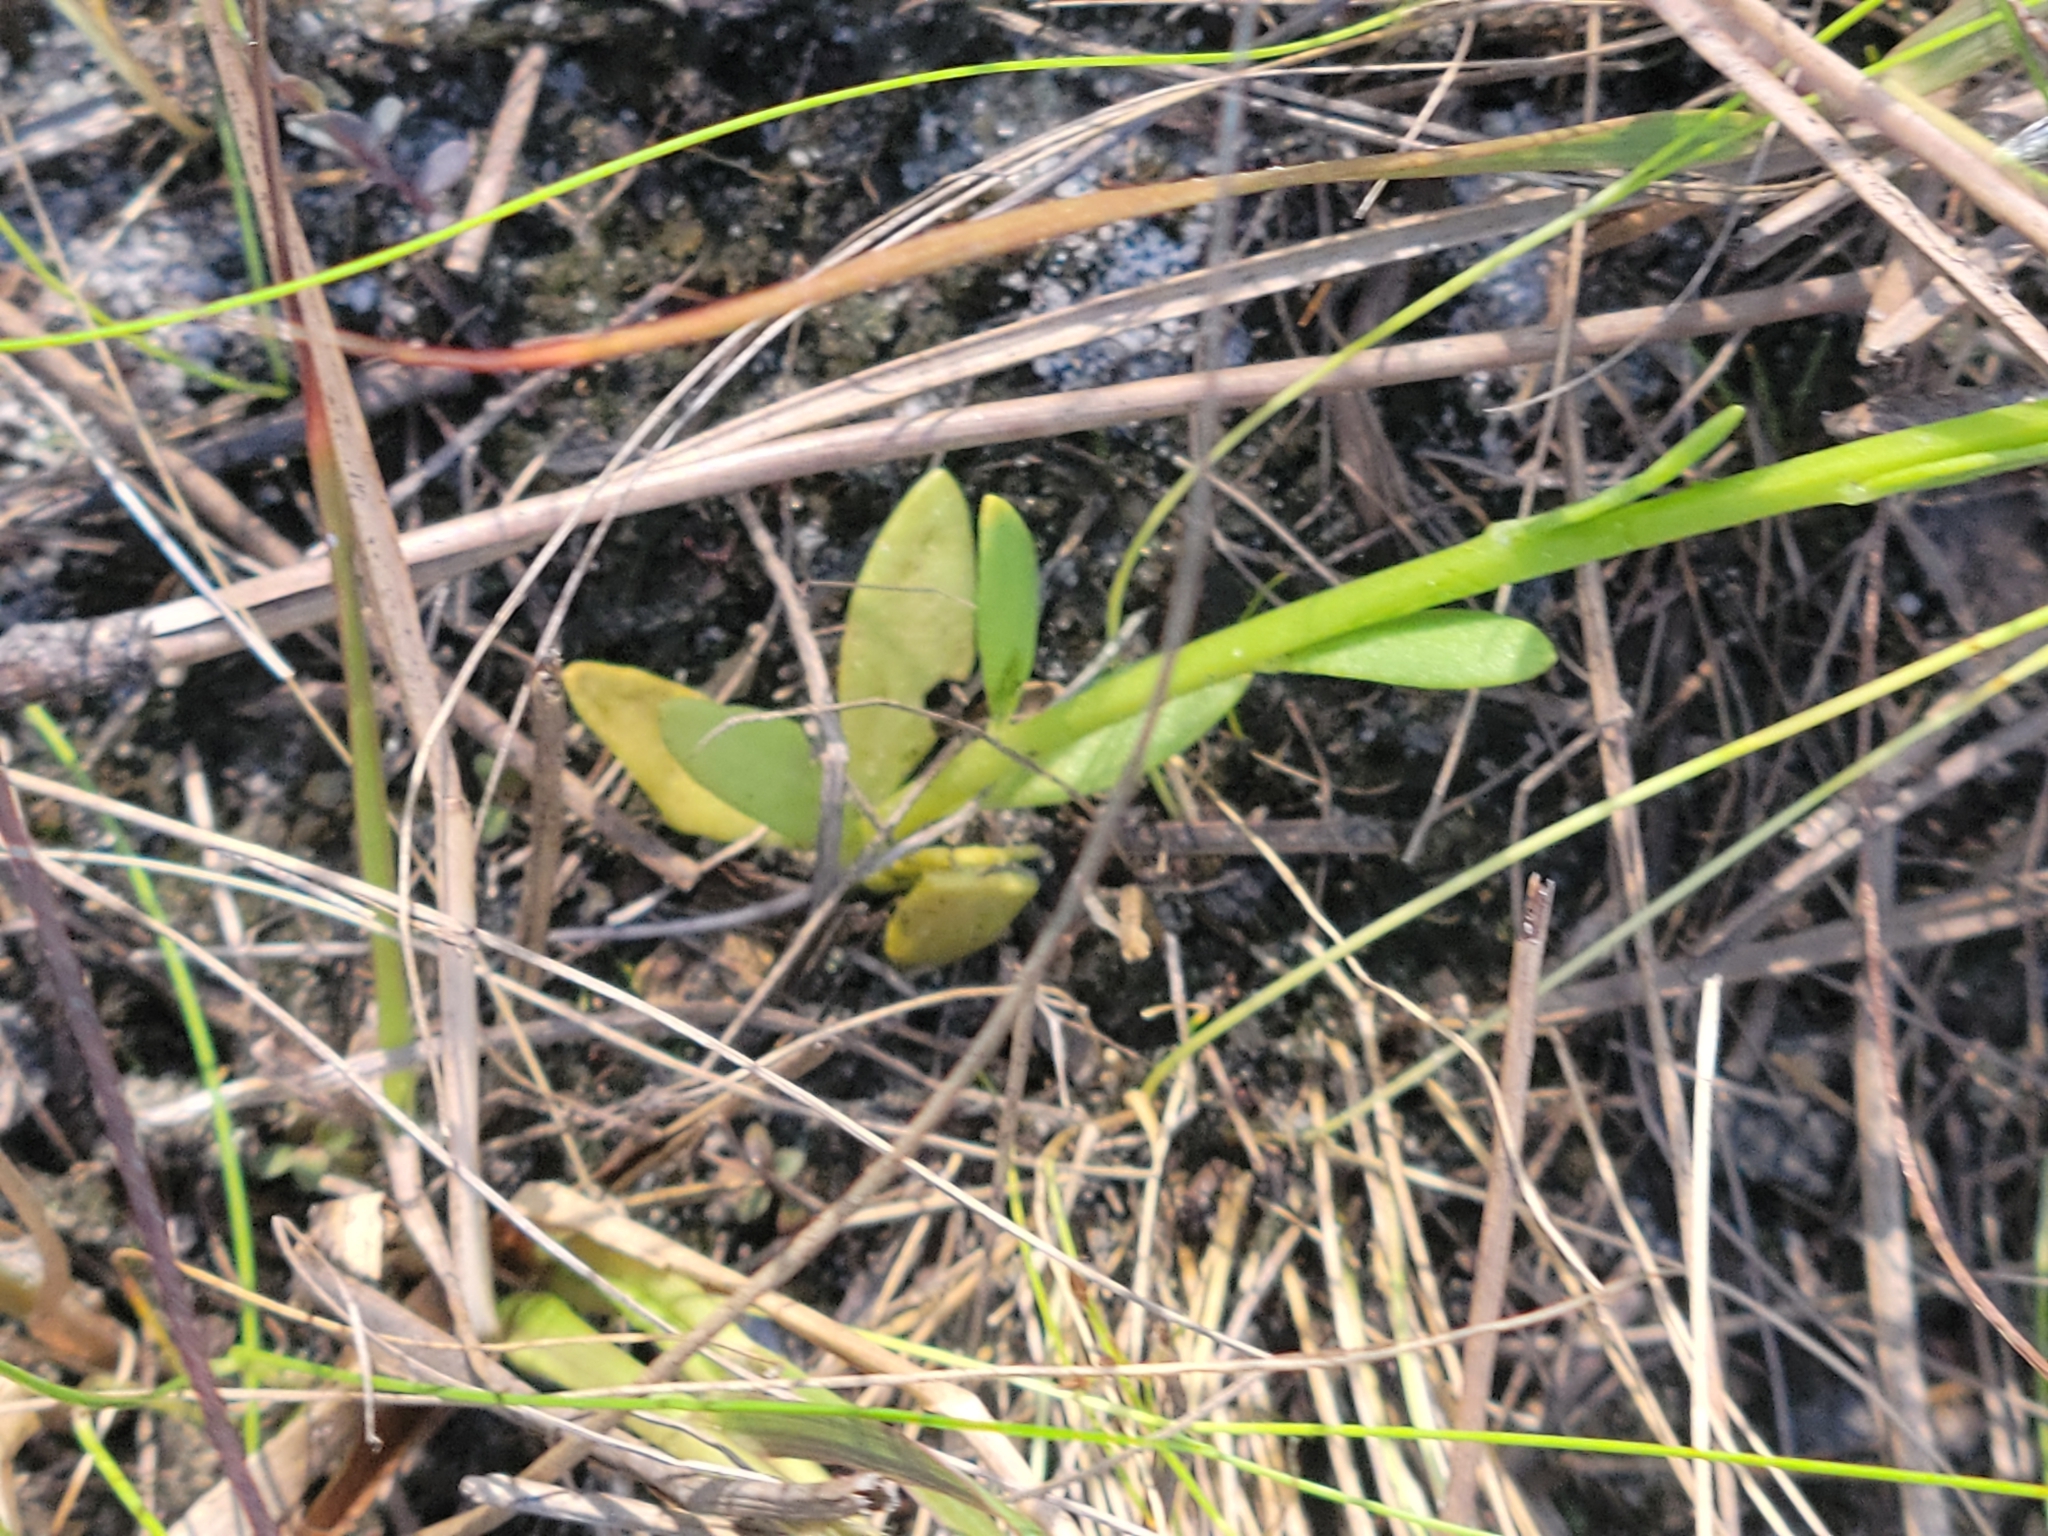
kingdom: Plantae
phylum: Tracheophyta
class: Magnoliopsida
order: Fabales
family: Polygalaceae
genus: Polygala
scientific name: Polygala baldwinii
